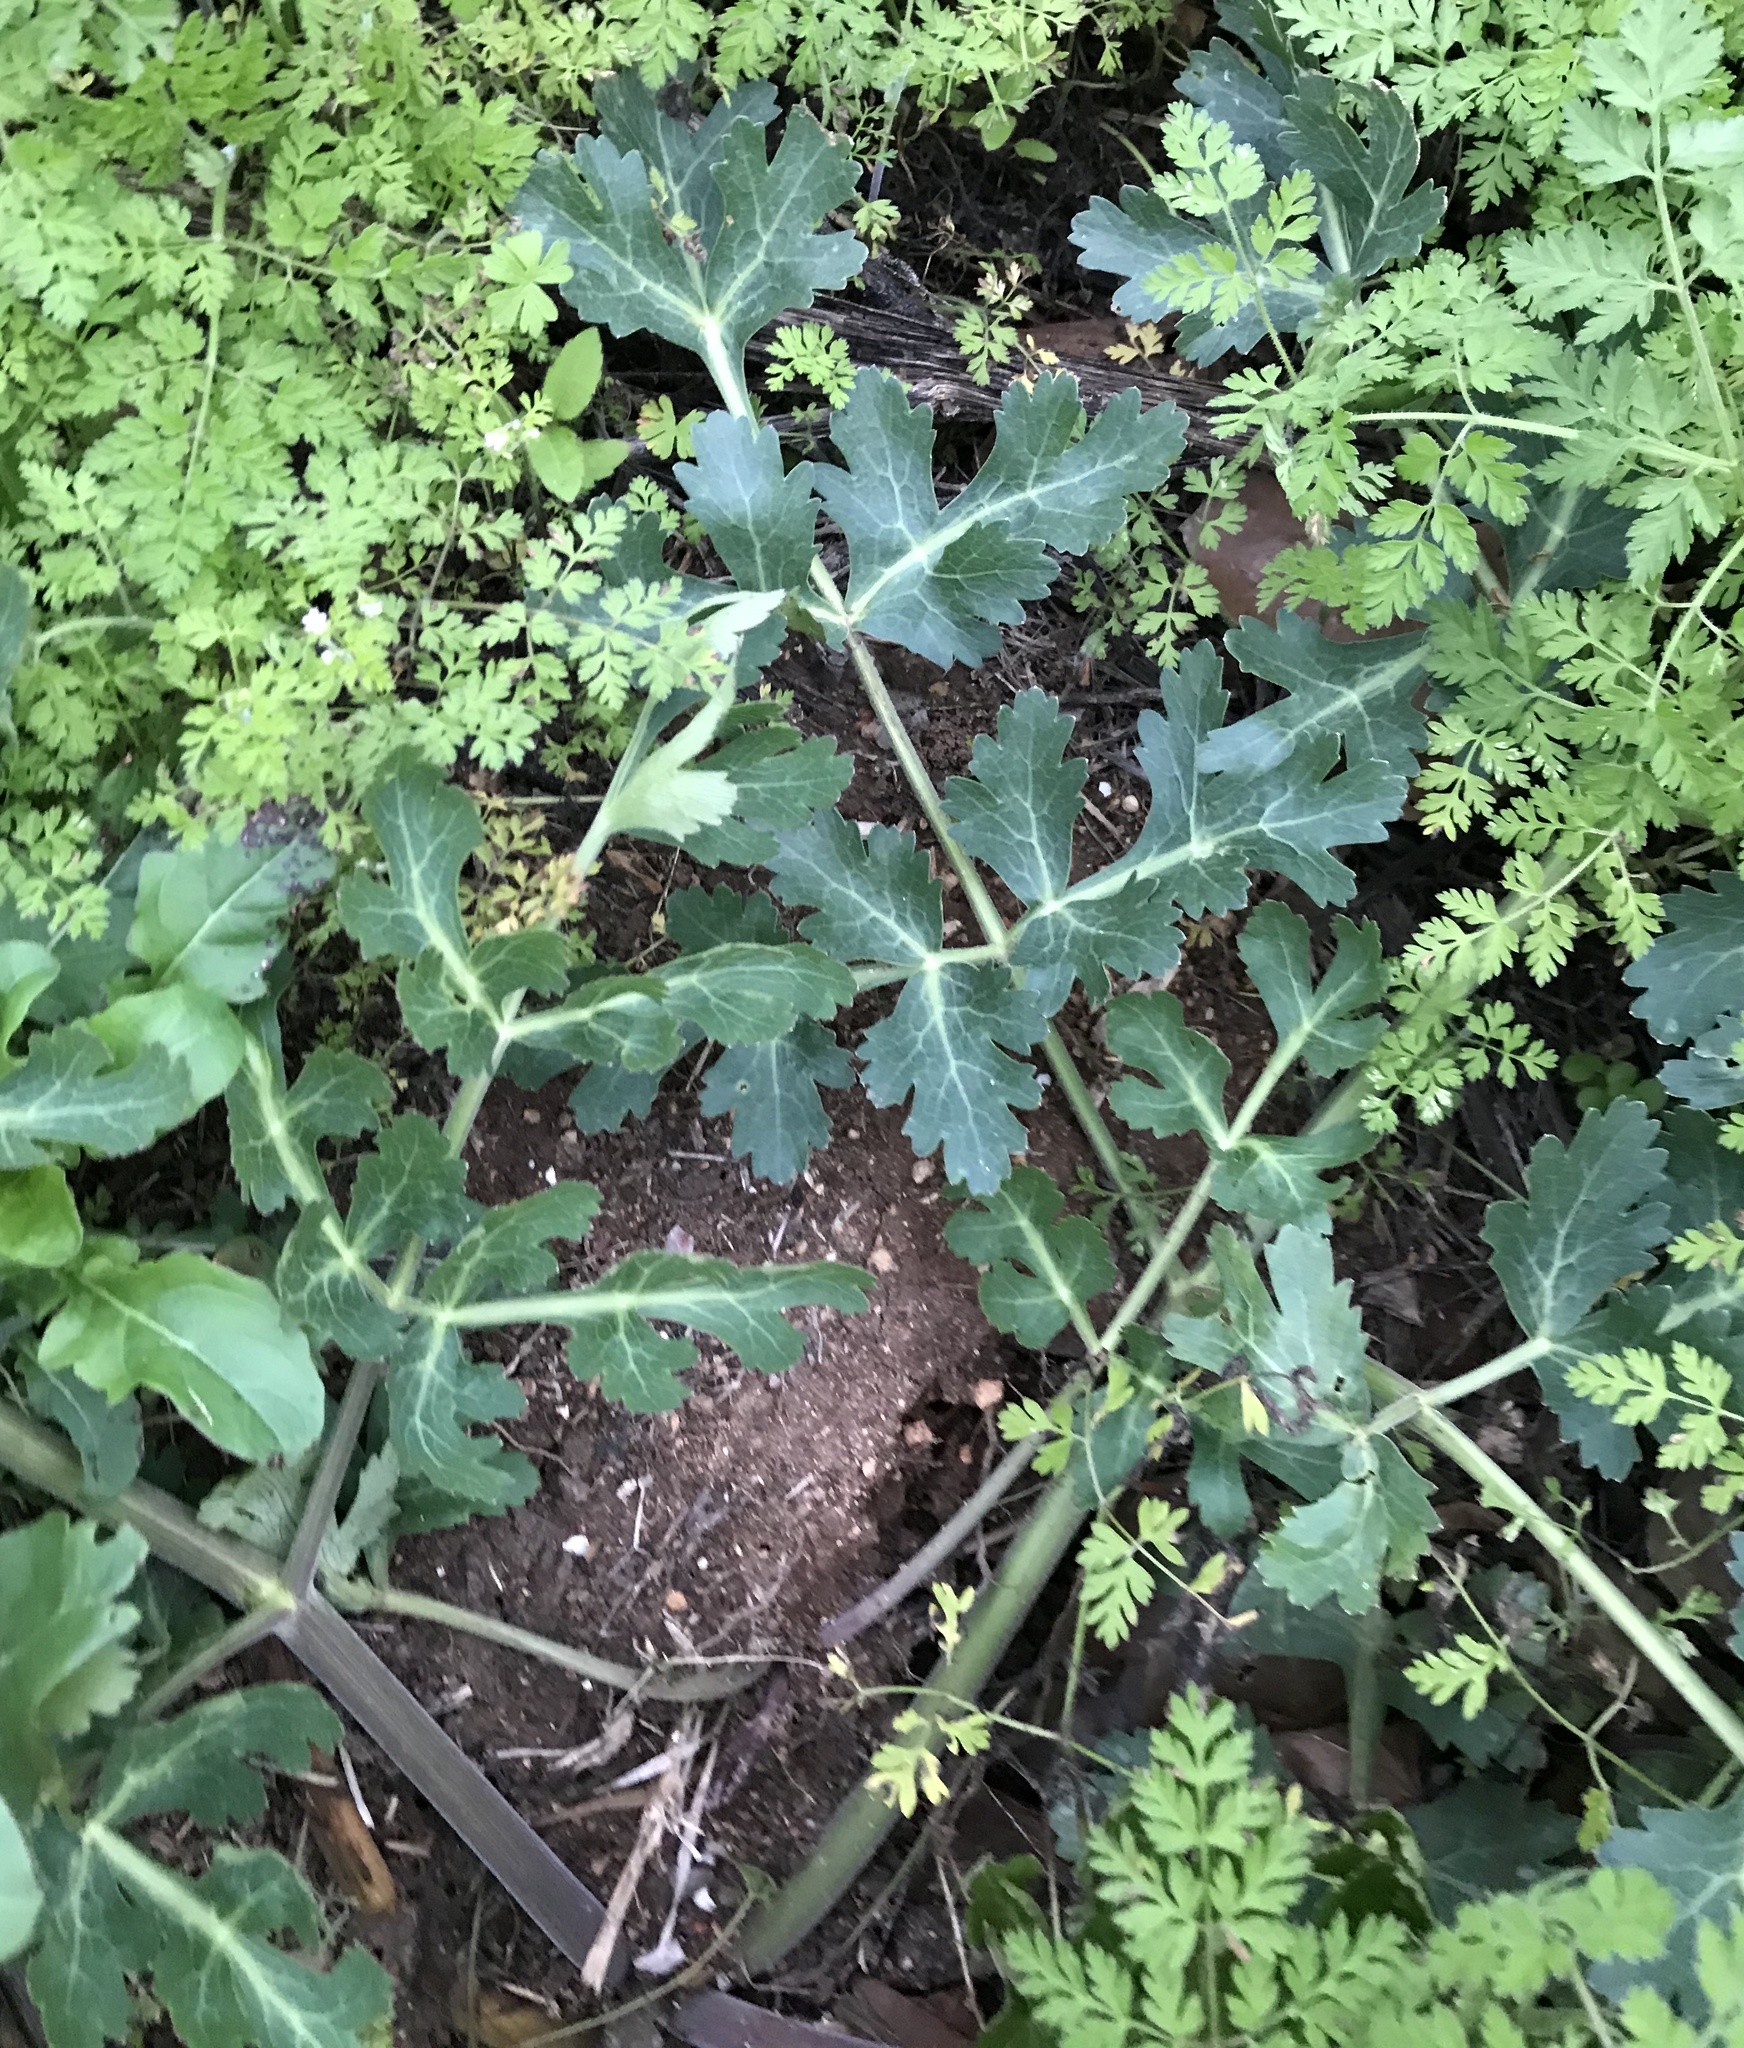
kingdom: Plantae
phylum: Tracheophyta
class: Magnoliopsida
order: Apiales
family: Apiaceae
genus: Polytaenia
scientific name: Polytaenia texana
